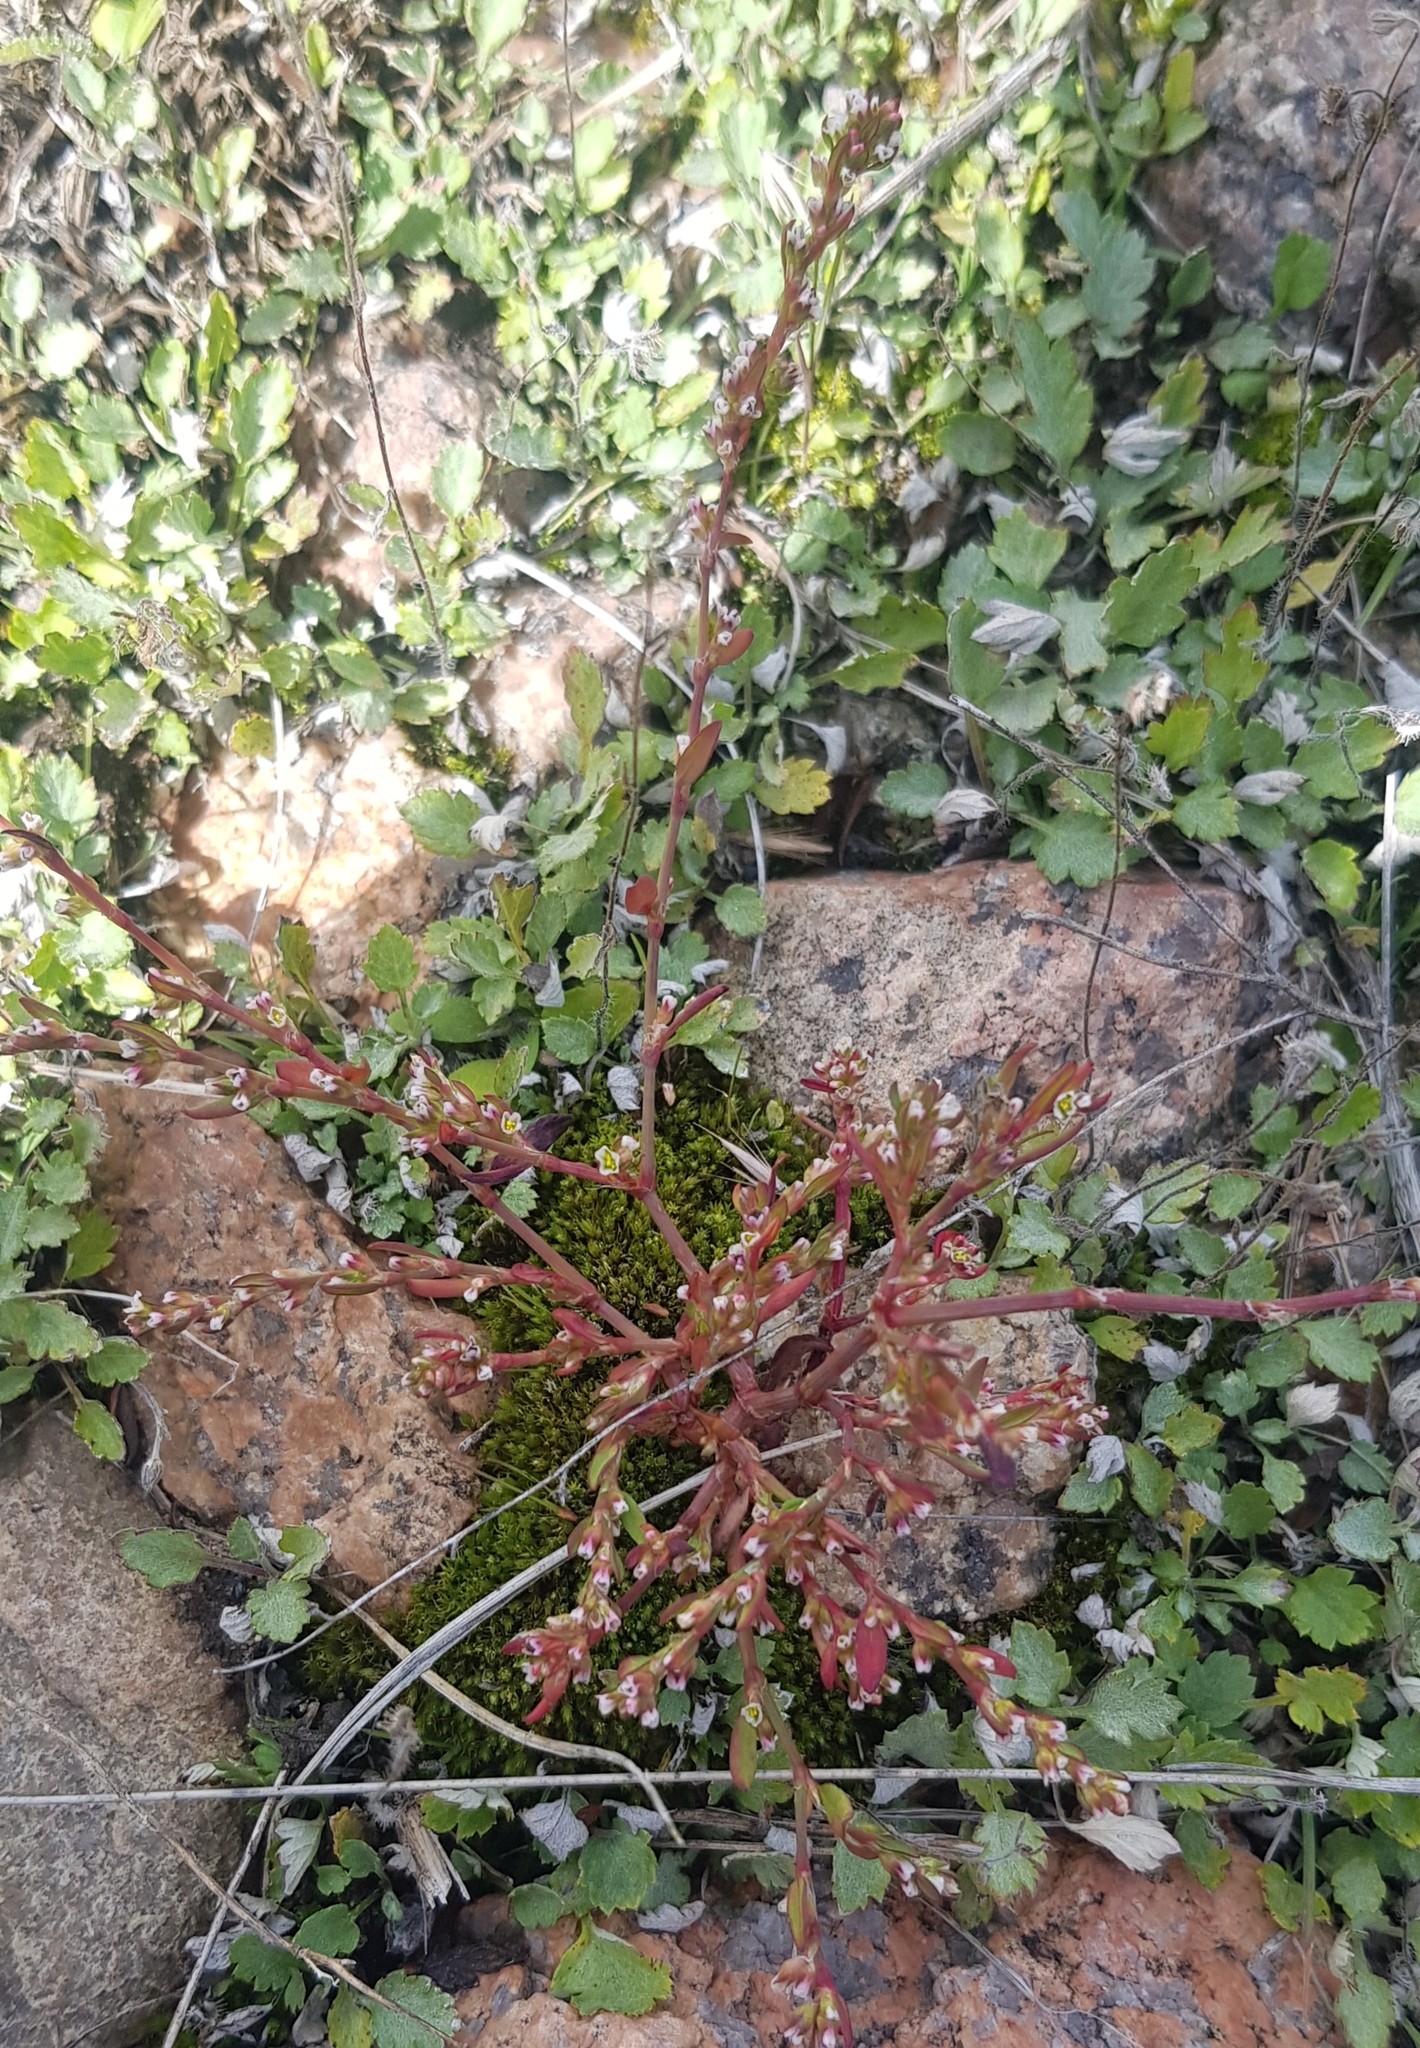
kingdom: Plantae
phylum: Tracheophyta
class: Magnoliopsida
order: Caryophyllales
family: Polygonaceae
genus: Polygonum
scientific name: Polygonum aviculare
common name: Prostrate knotweed
